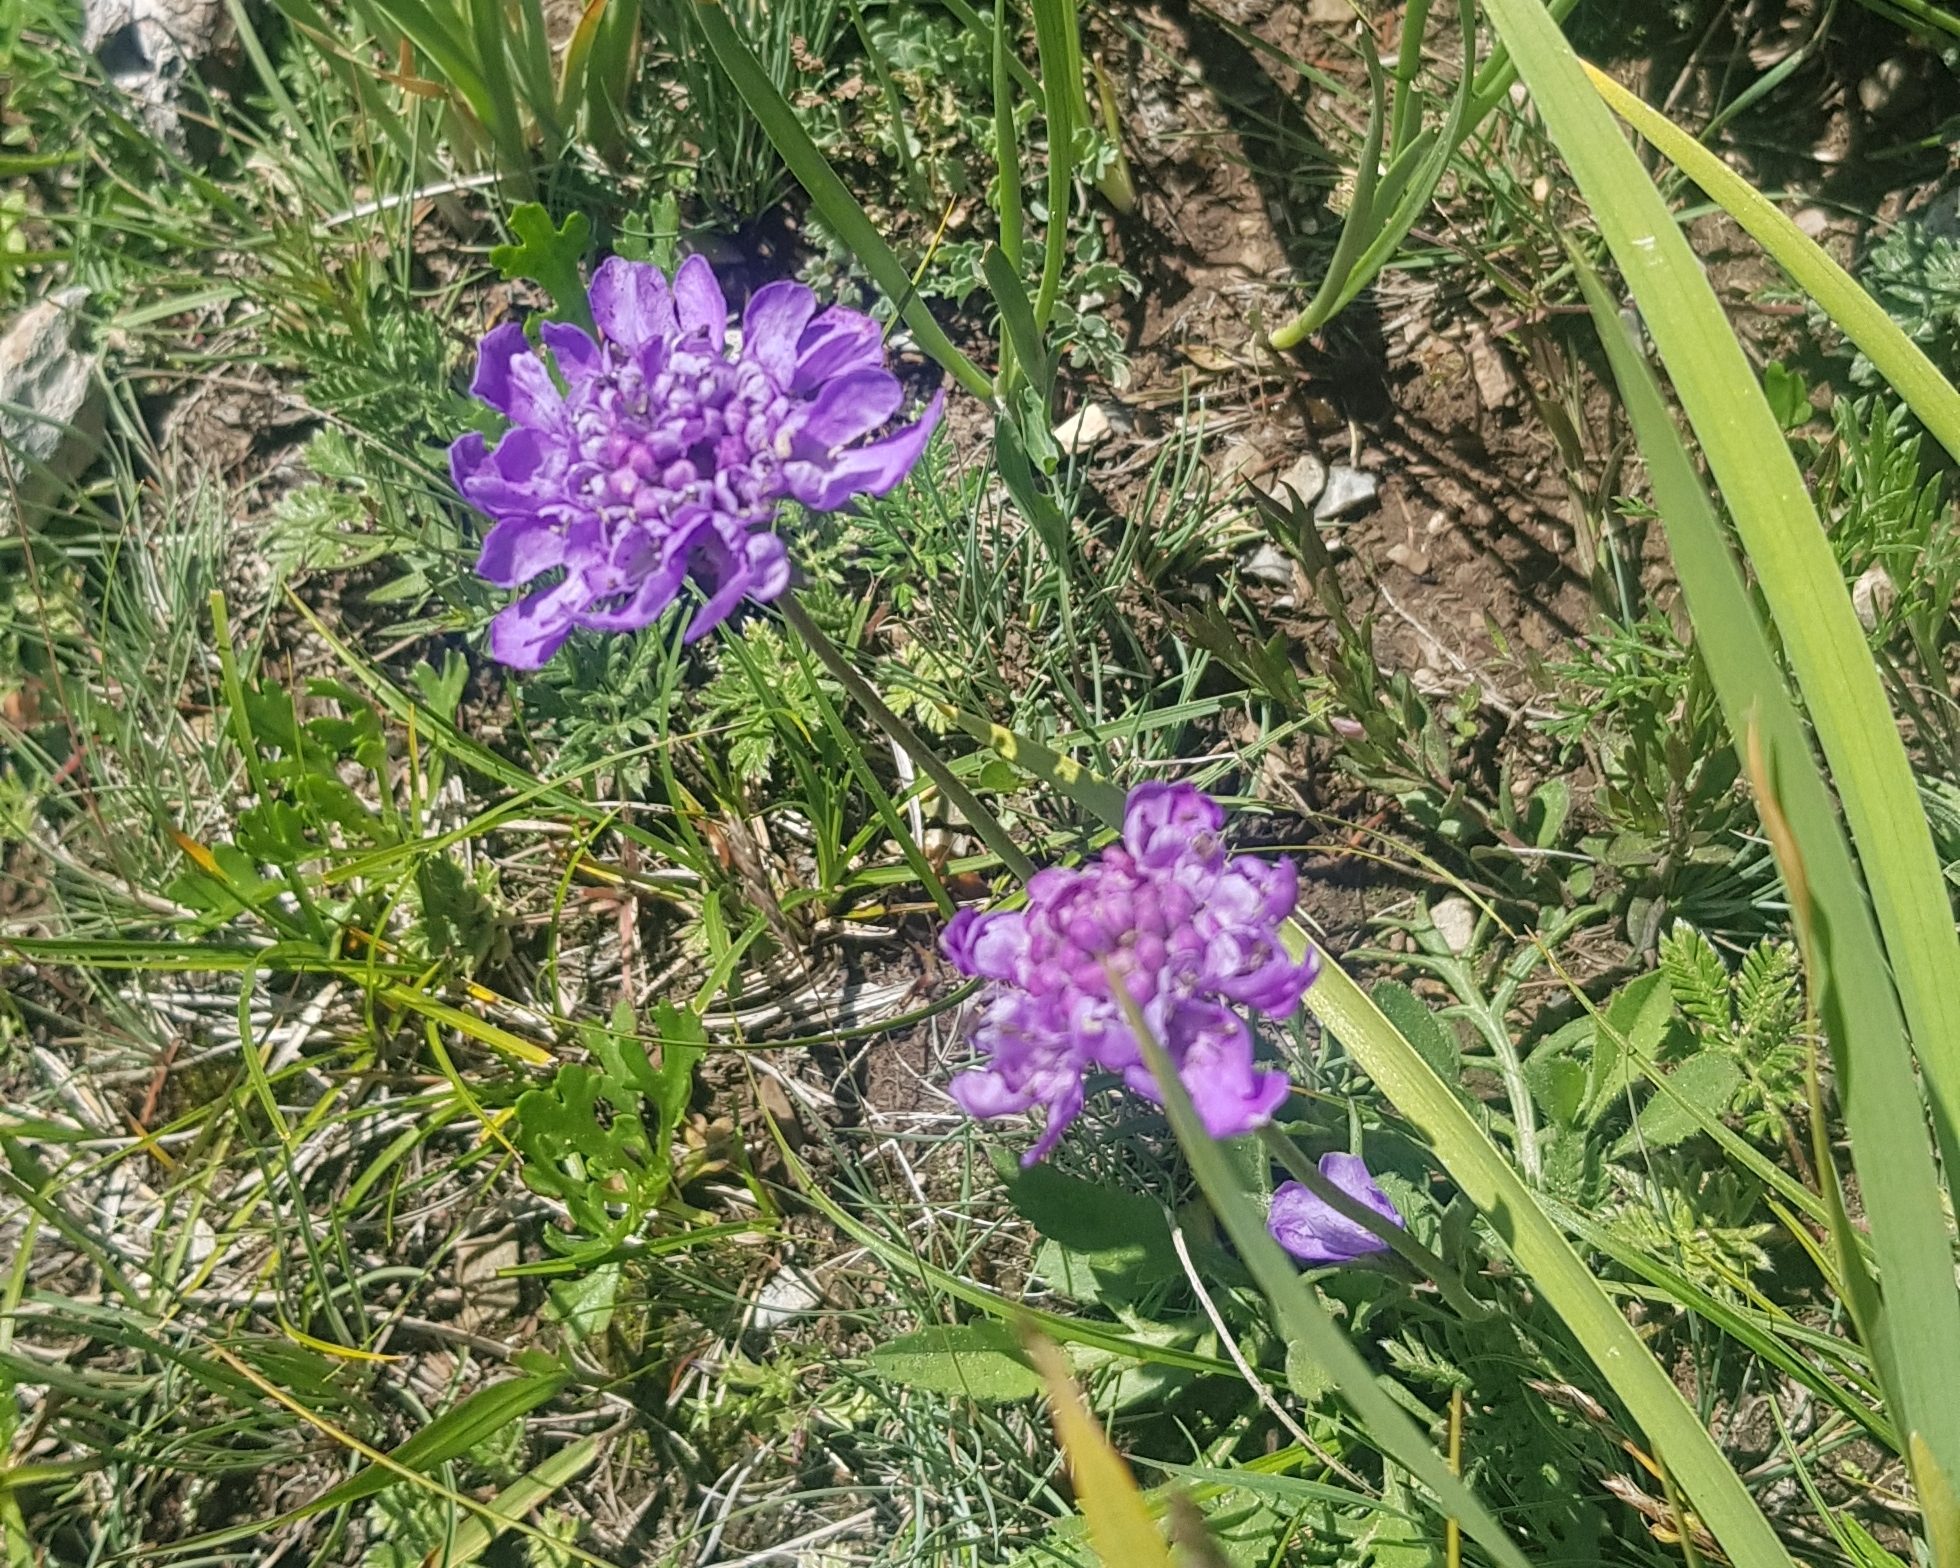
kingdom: Plantae
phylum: Tracheophyta
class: Magnoliopsida
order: Dipsacales
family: Caprifoliaceae
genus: Scabiosa
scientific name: Scabiosa comosa
